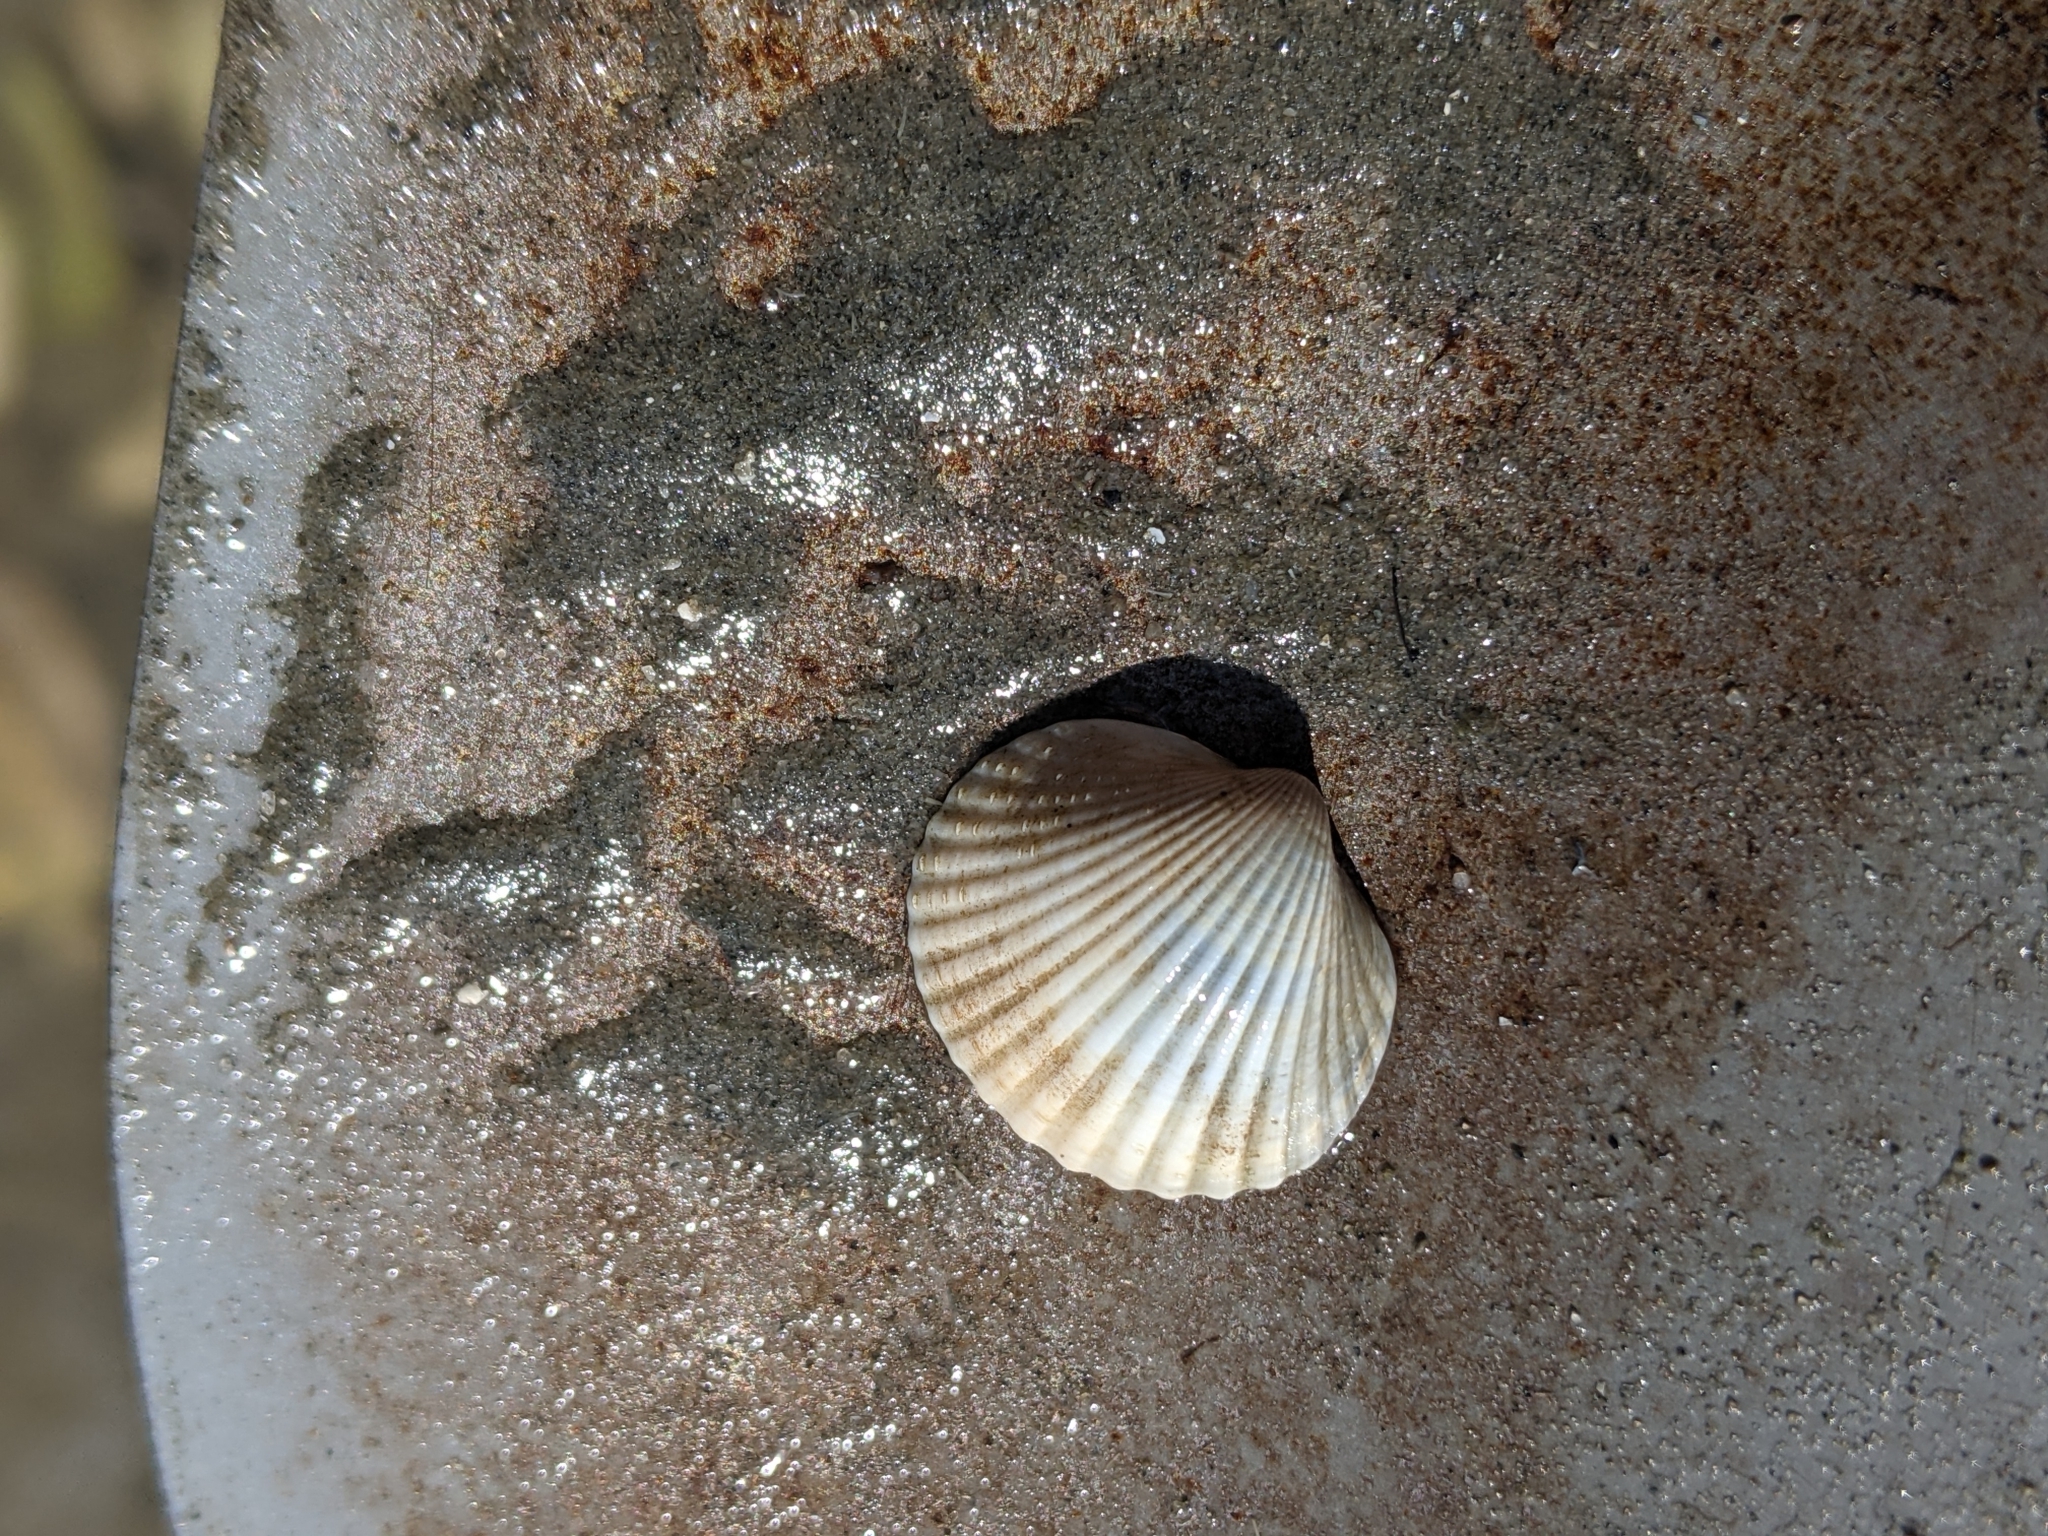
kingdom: Animalia
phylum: Mollusca
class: Bivalvia
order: Cardiida
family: Cardiidae
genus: Cerastoderma
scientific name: Cerastoderma edule
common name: Common cockle
